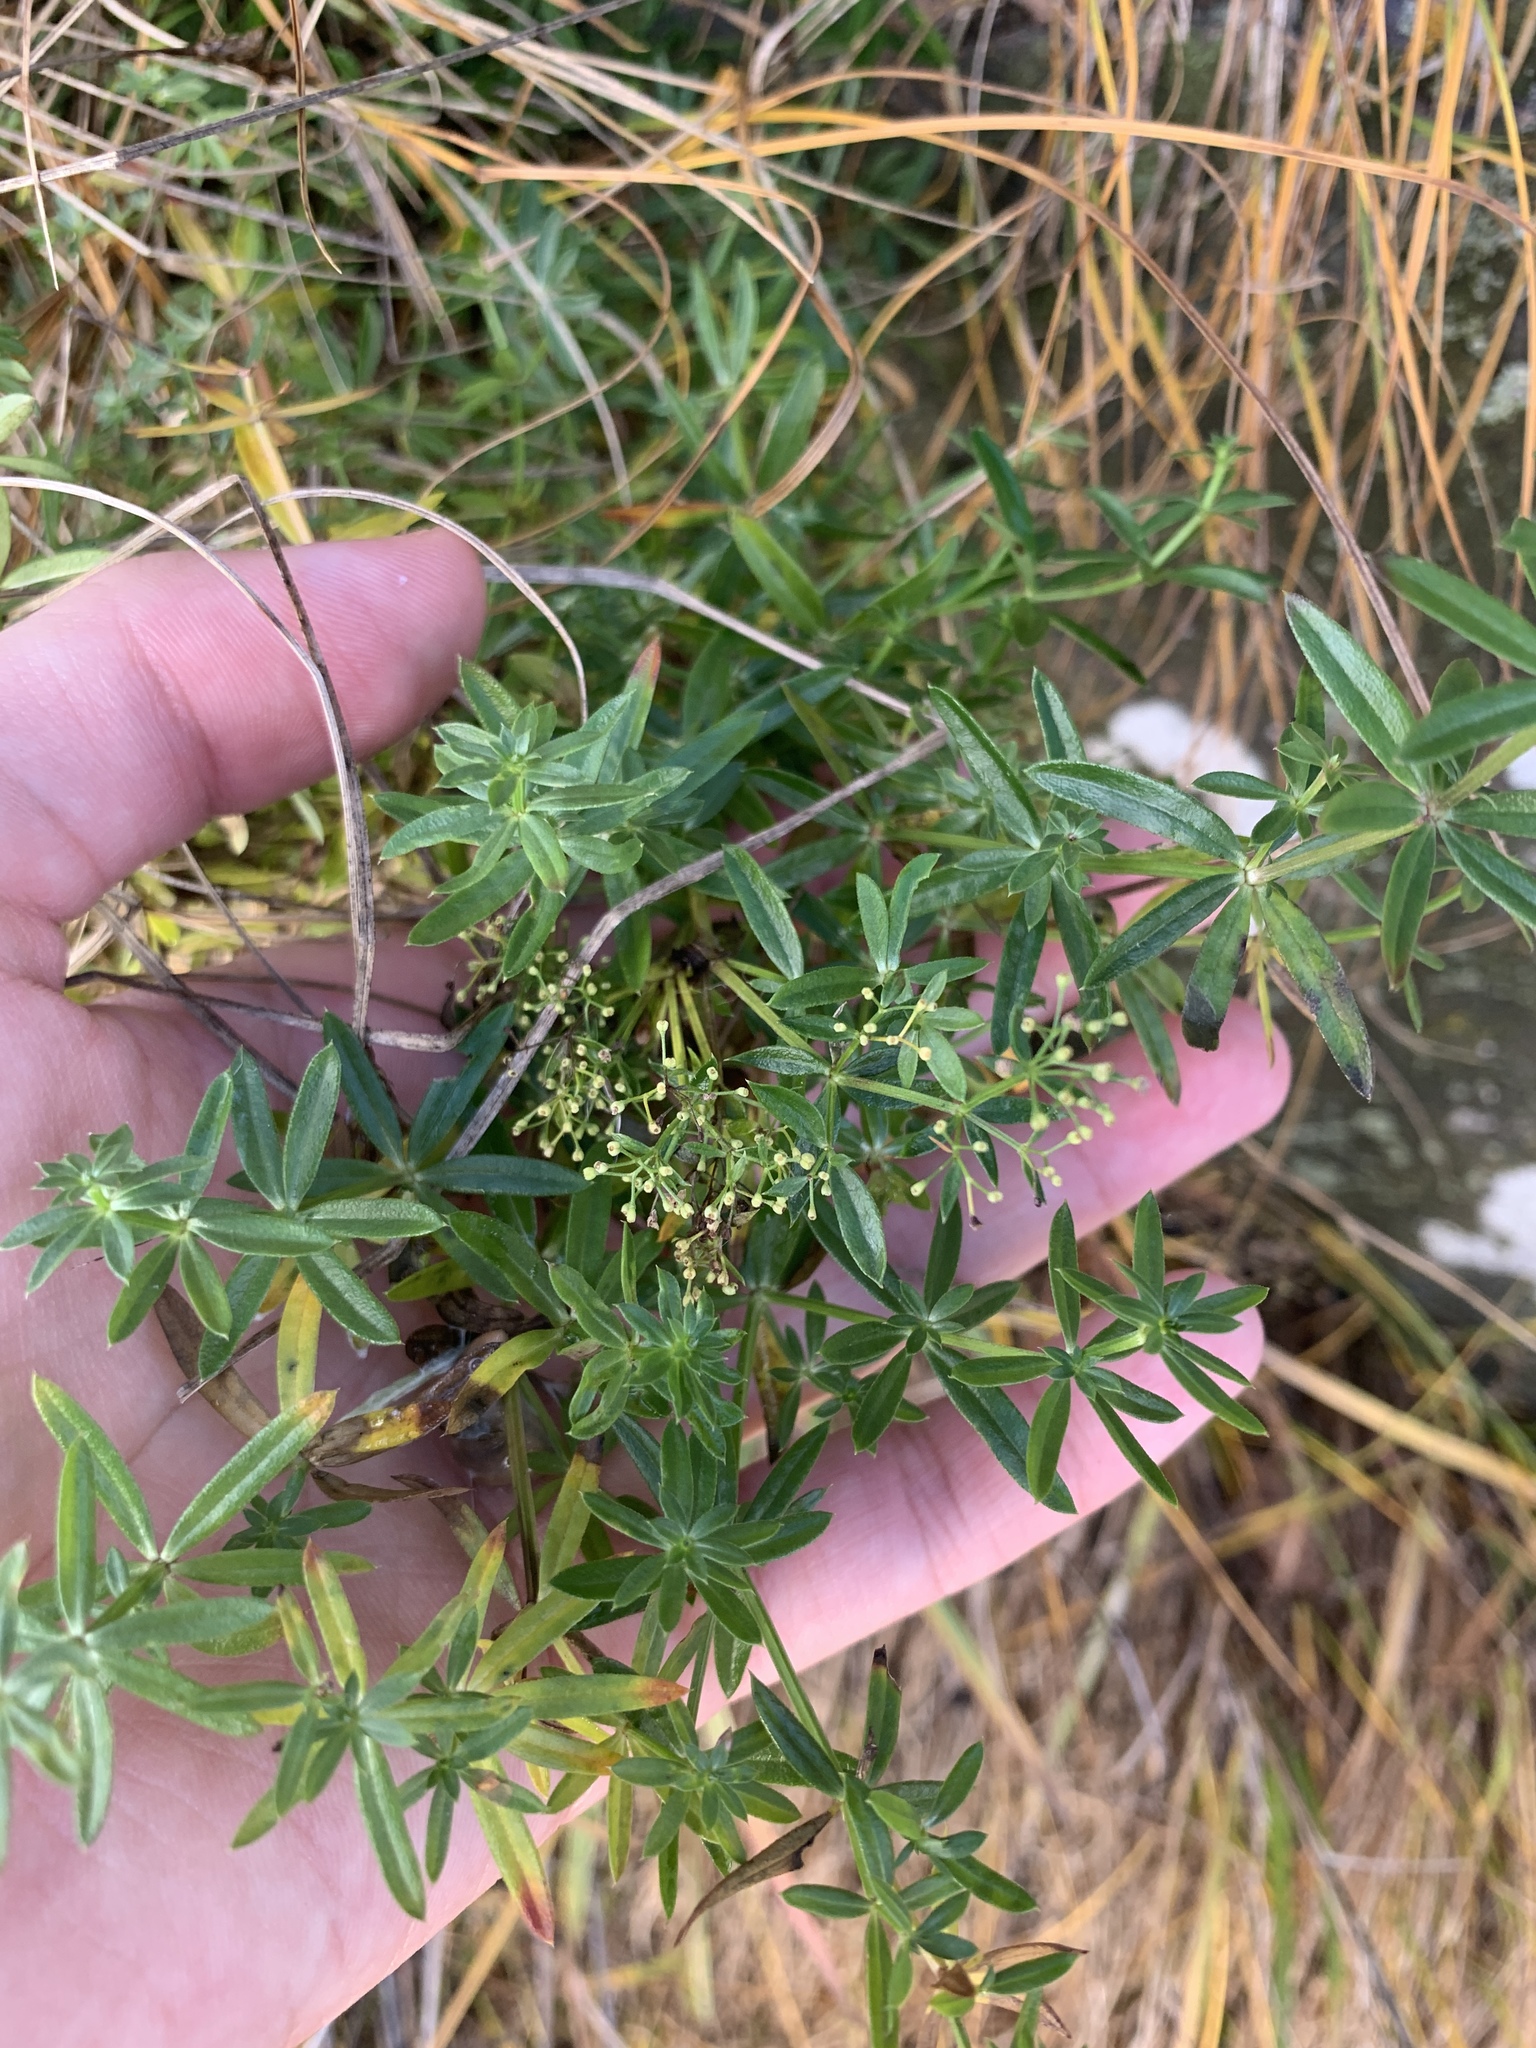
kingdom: Plantae
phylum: Tracheophyta
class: Magnoliopsida
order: Gentianales
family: Rubiaceae
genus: Galium
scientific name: Galium mollugo
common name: Hedge bedstraw
